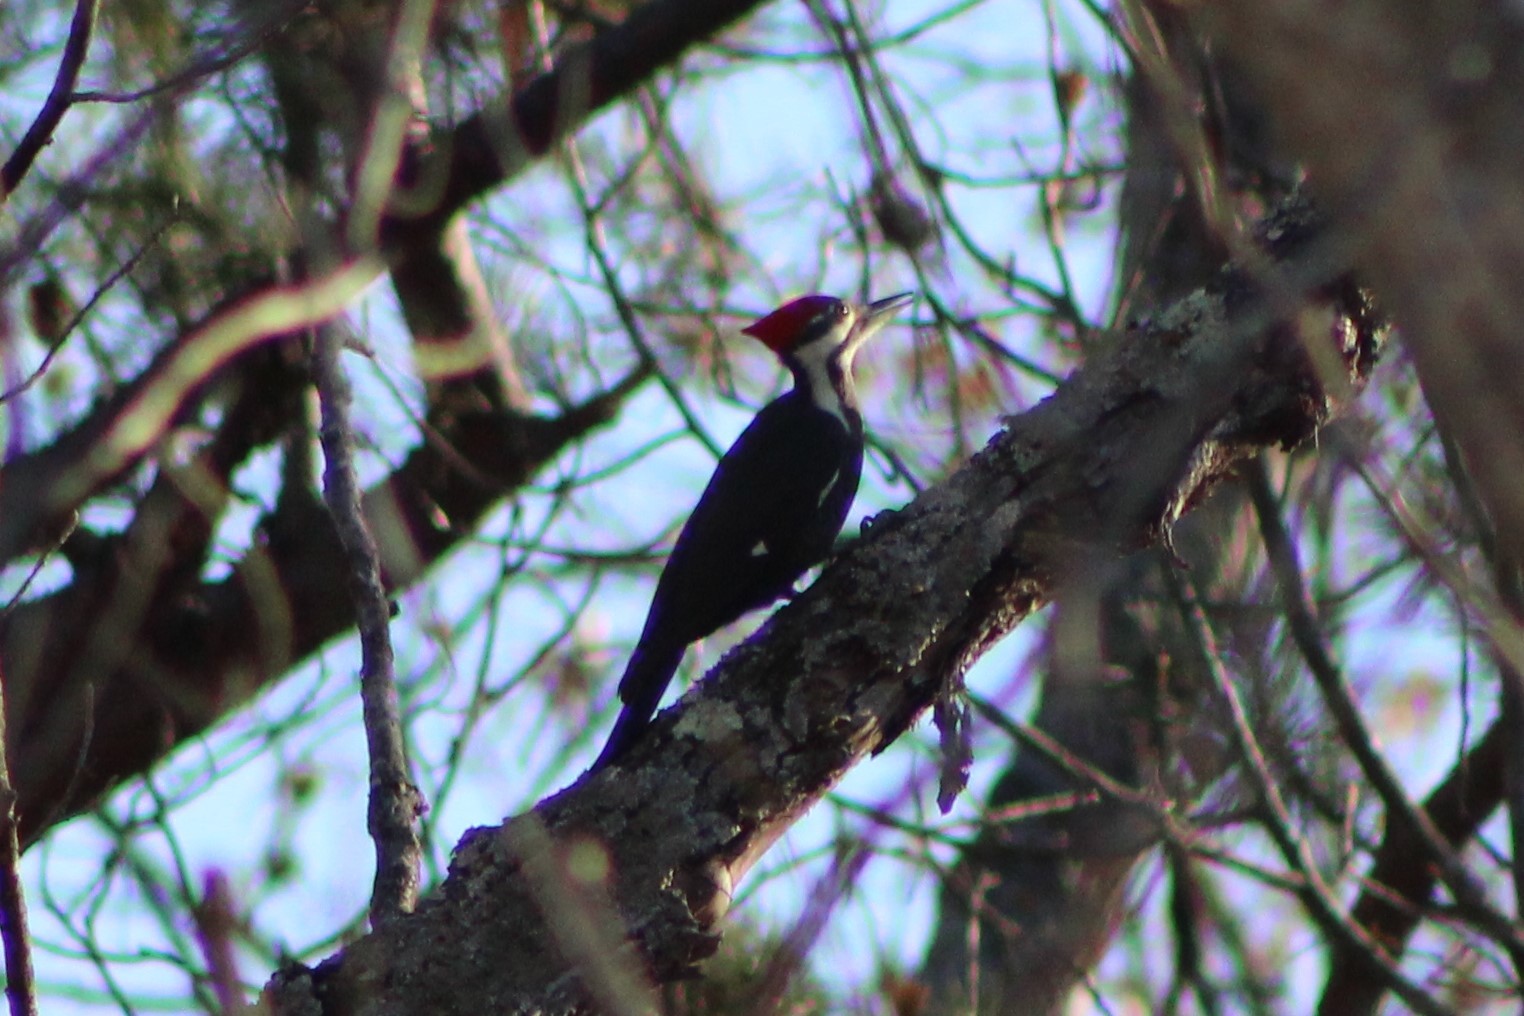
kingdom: Animalia
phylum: Chordata
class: Aves
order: Piciformes
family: Picidae
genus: Dryocopus
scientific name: Dryocopus pileatus
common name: Pileated woodpecker
